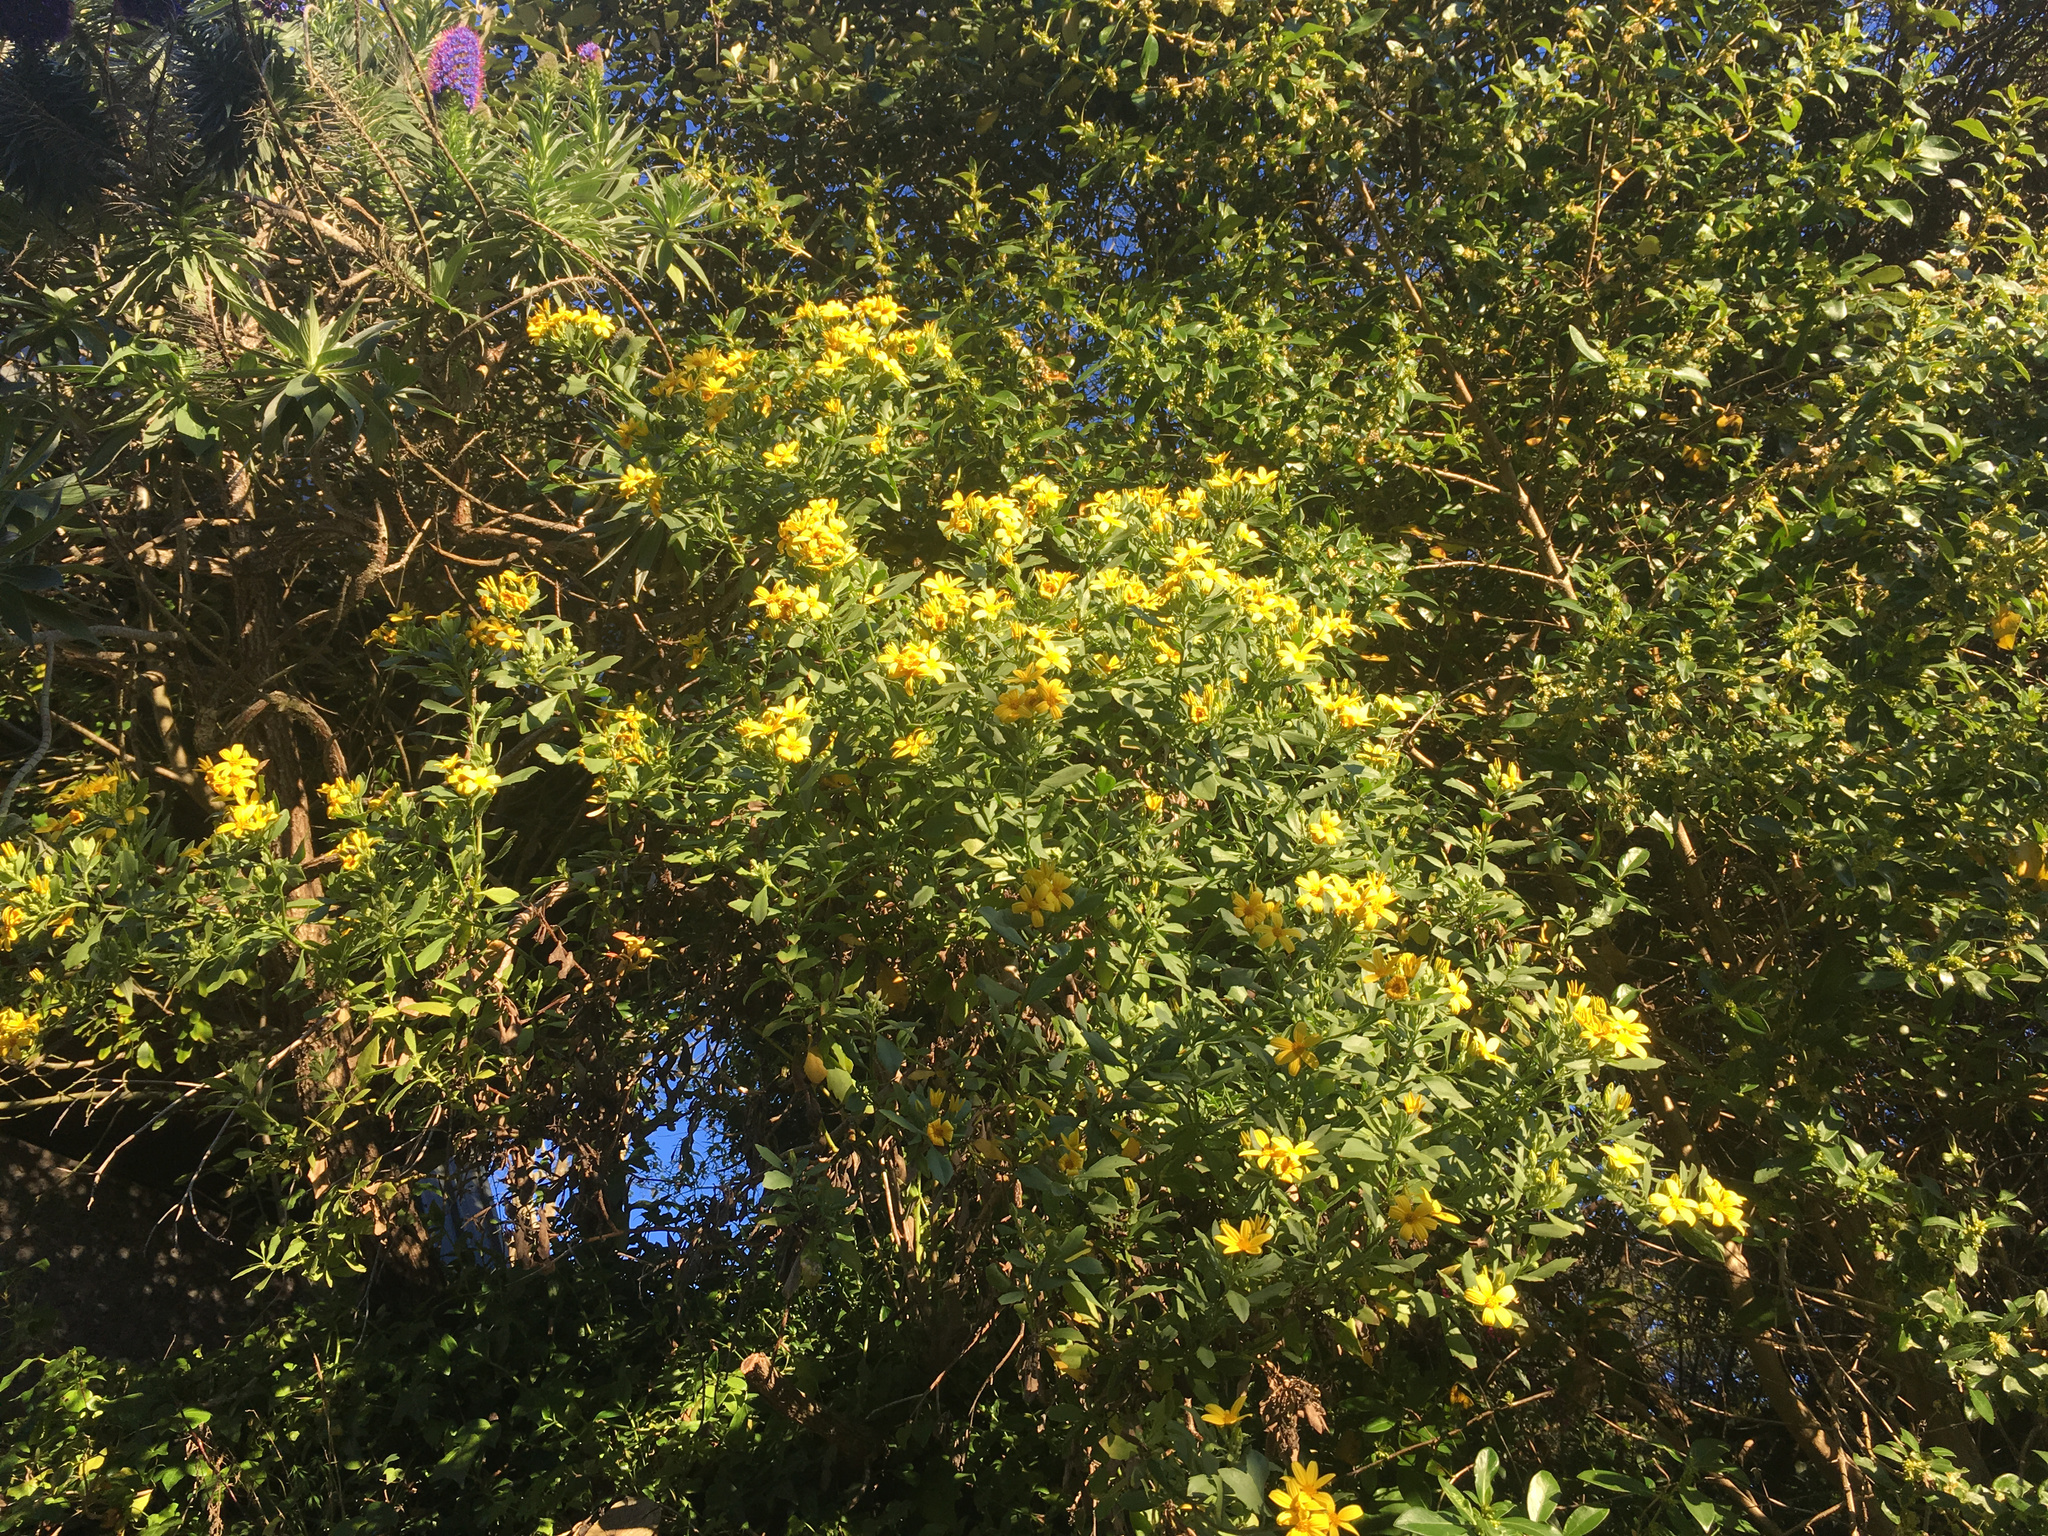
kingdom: Plantae
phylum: Tracheophyta
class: Magnoliopsida
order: Asterales
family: Asteraceae
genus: Osteospermum
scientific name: Osteospermum moniliferum
